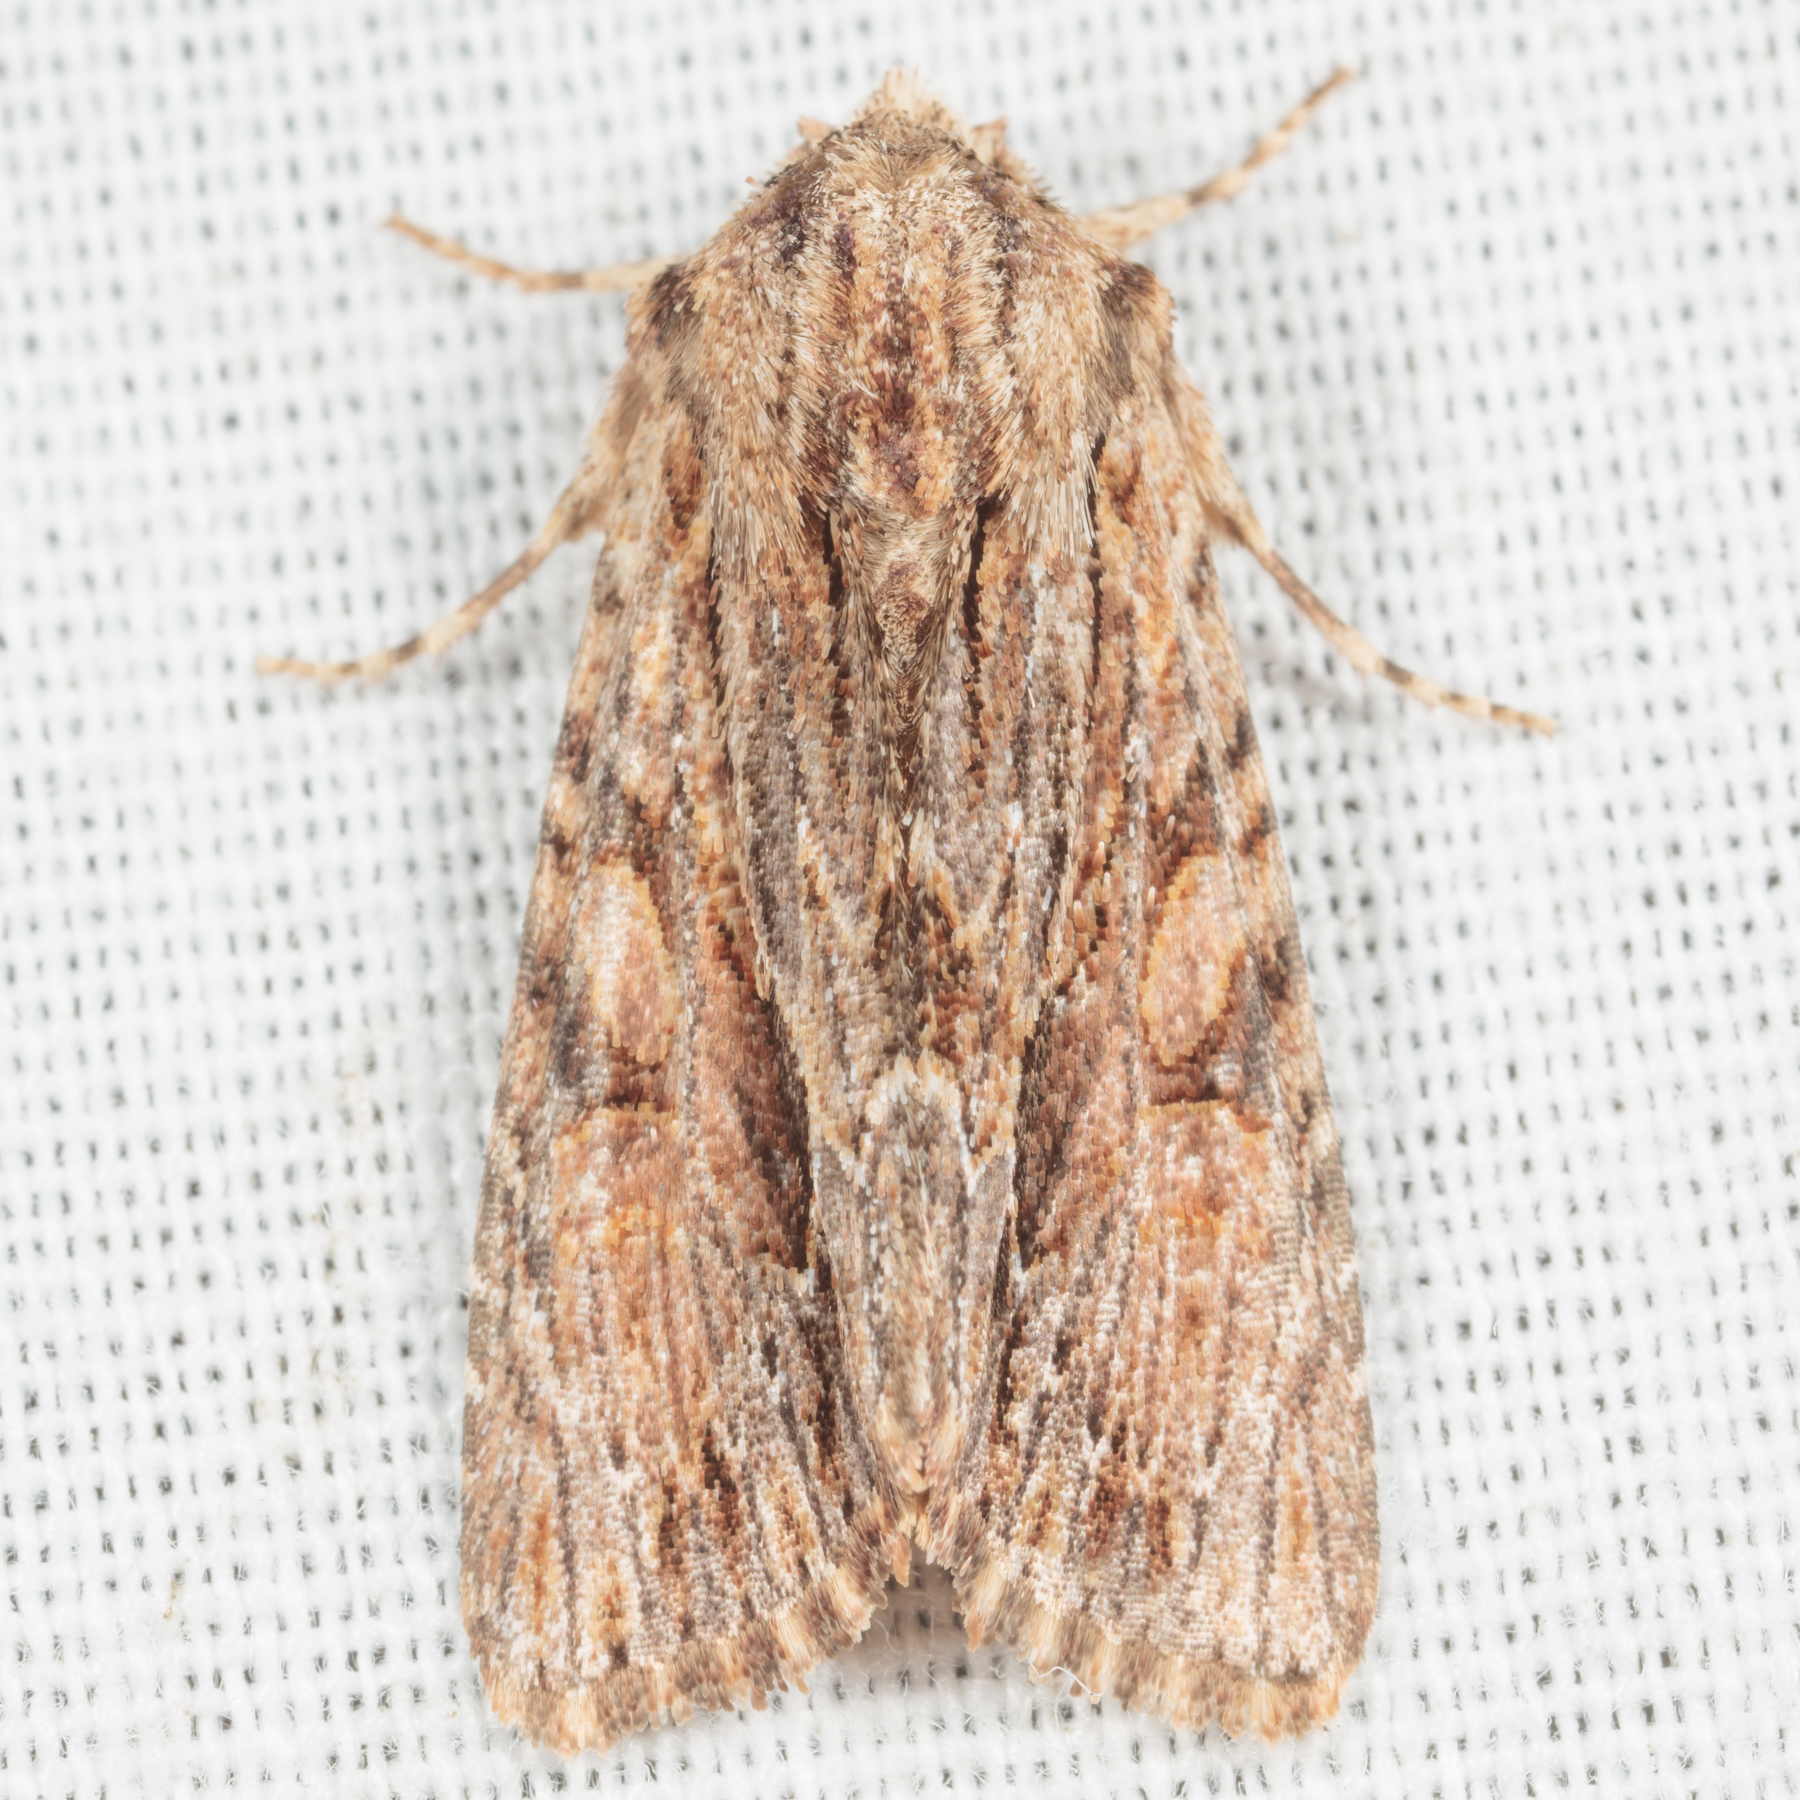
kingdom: Animalia
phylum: Arthropoda
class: Insecta
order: Lepidoptera
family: Noctuidae
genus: Achatia
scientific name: Achatia mucens
